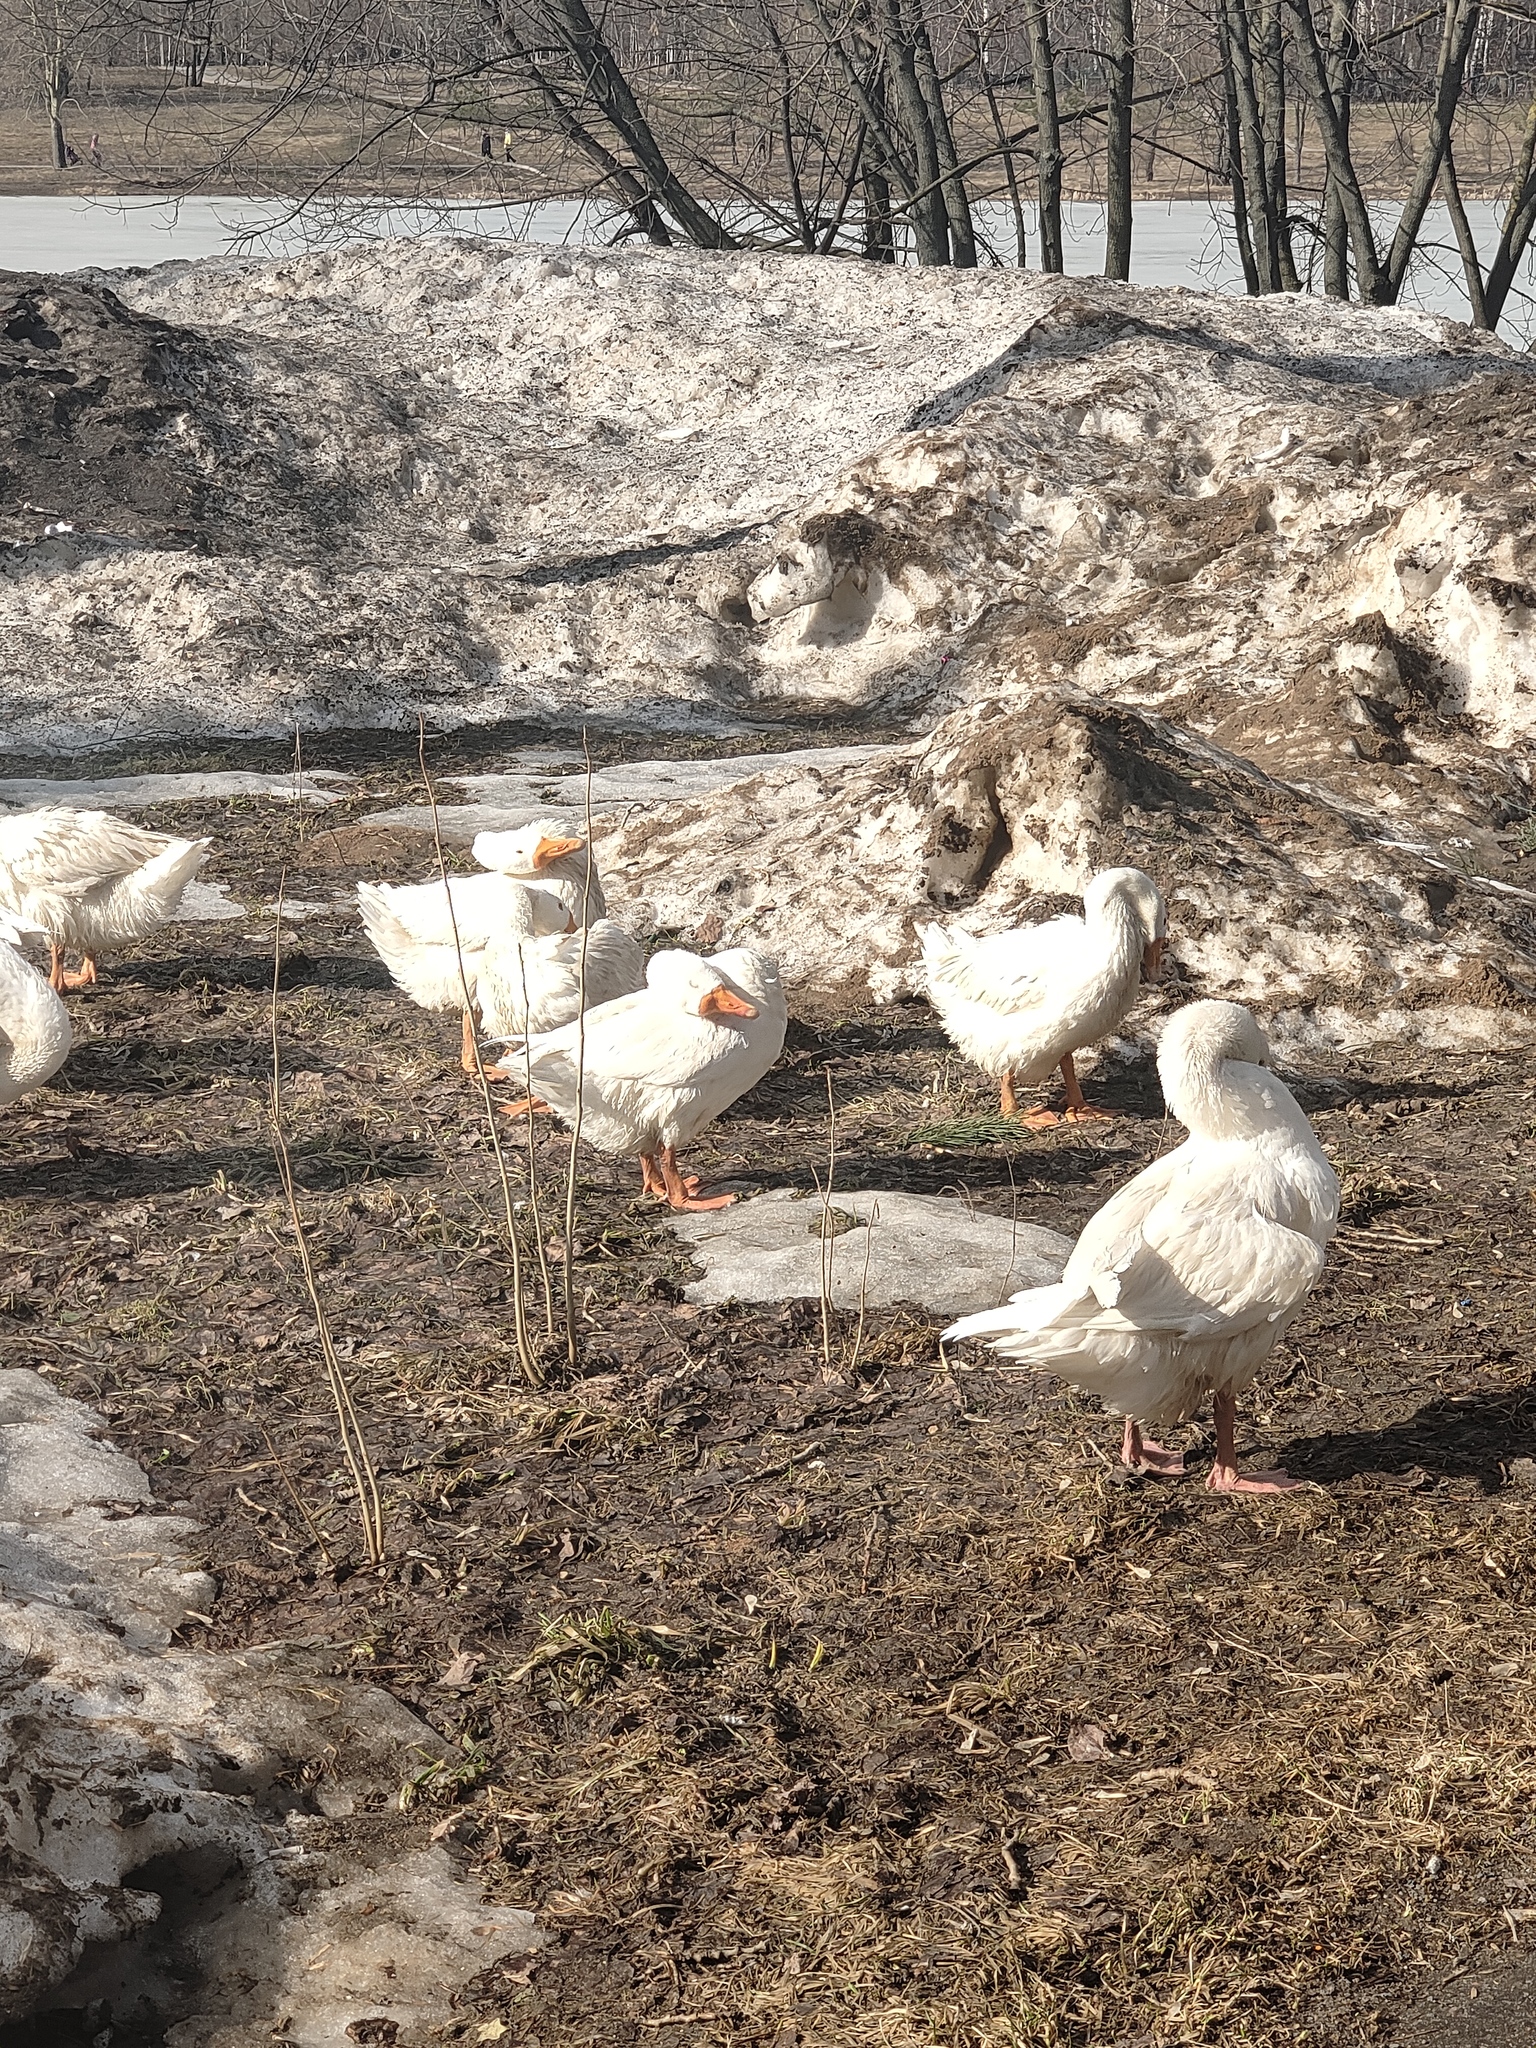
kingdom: Animalia
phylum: Chordata
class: Aves
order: Anseriformes
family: Anatidae
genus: Anser
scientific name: Anser anser
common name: Greylag goose
